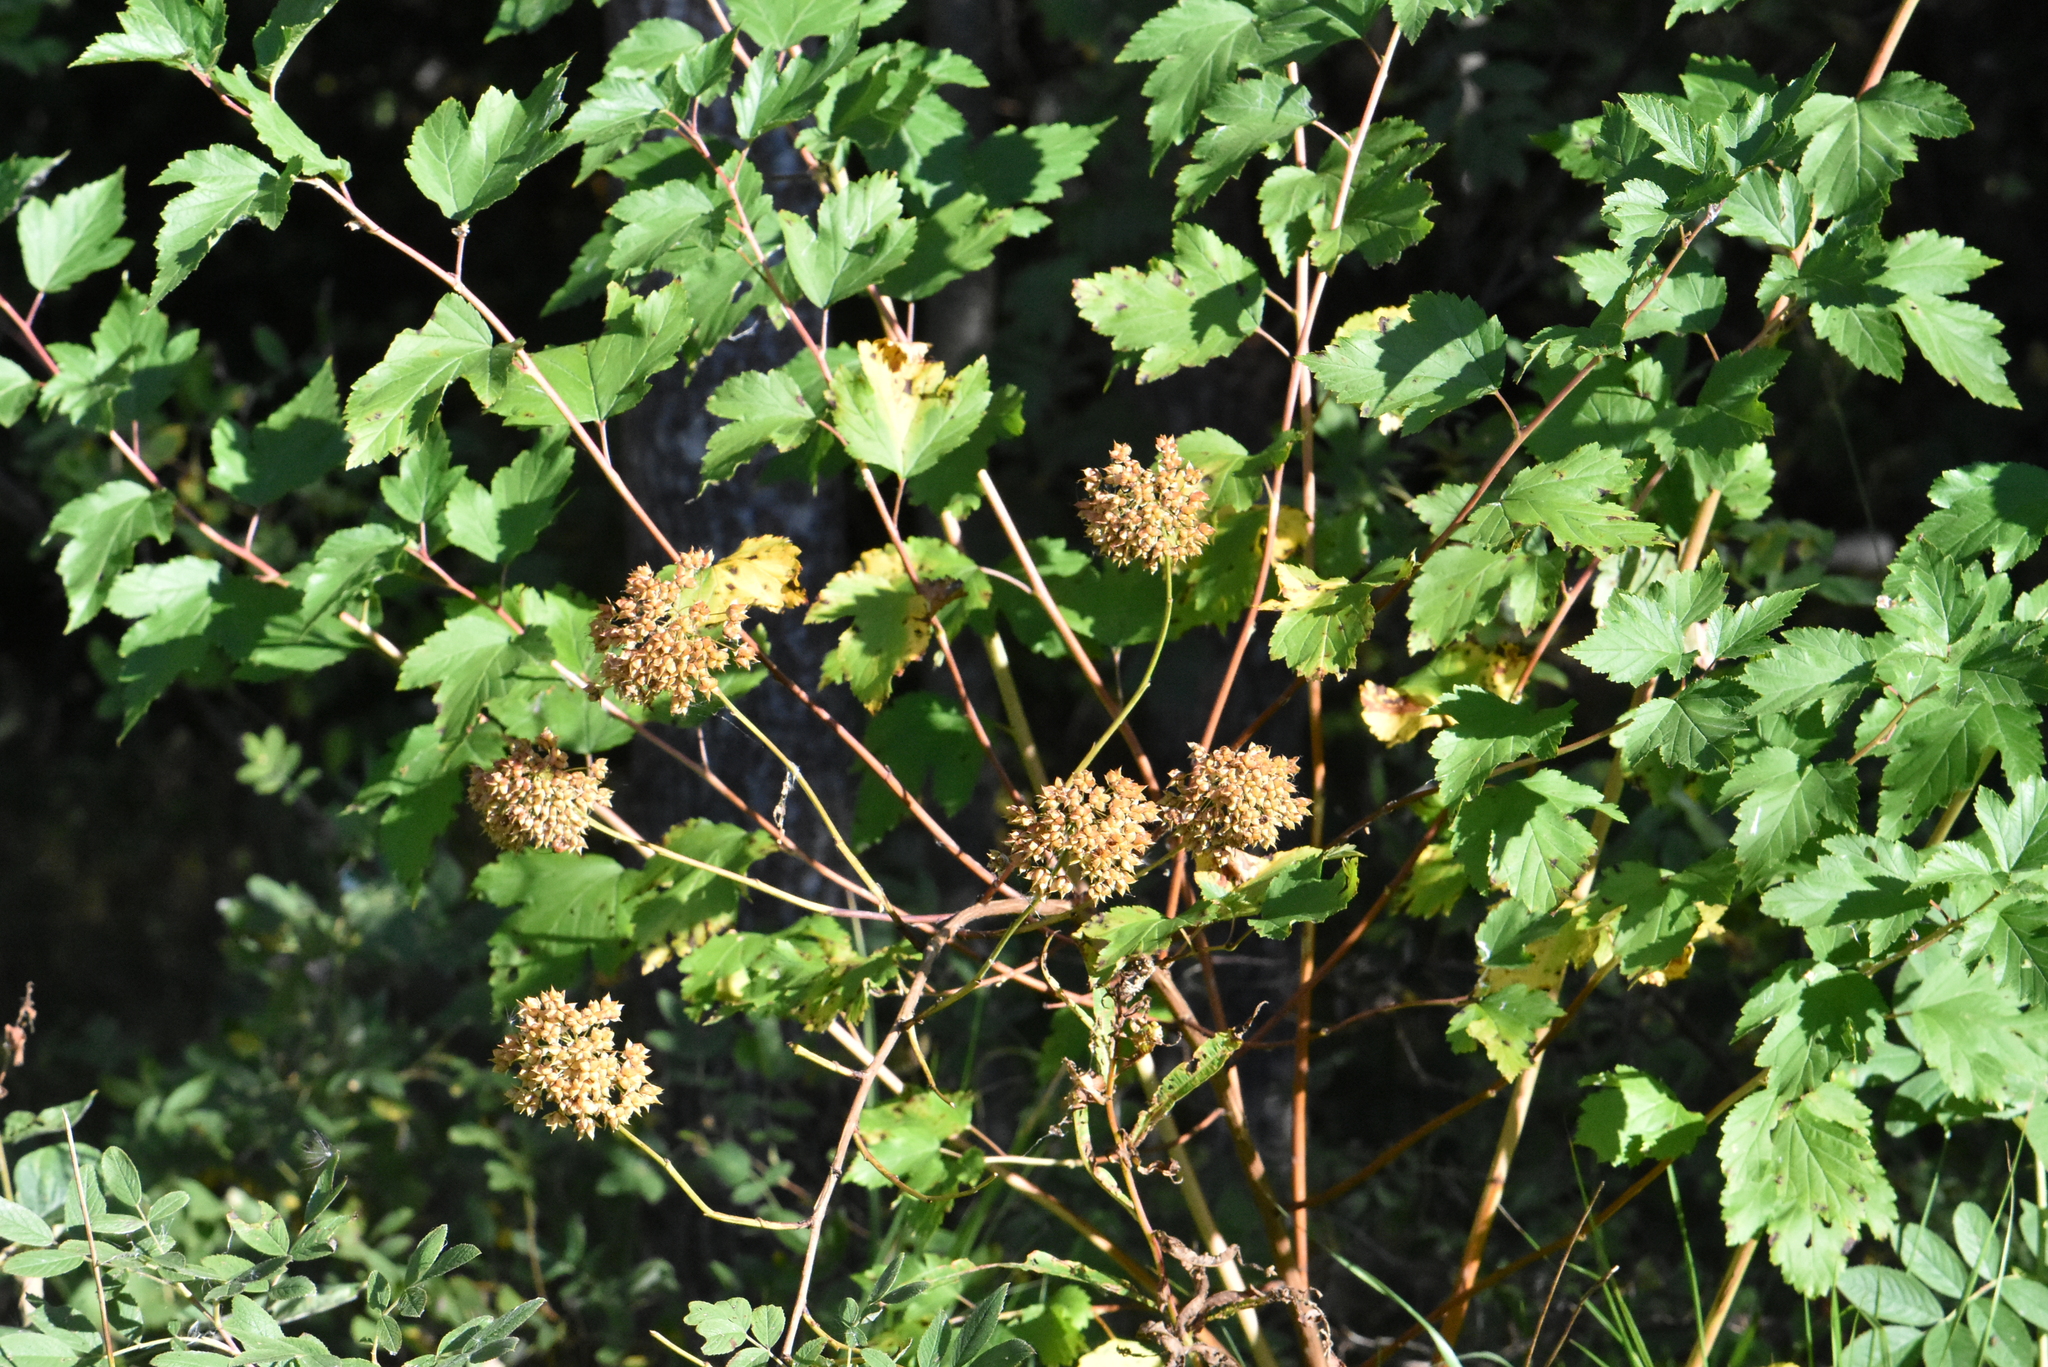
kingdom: Plantae
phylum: Tracheophyta
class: Magnoliopsida
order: Rosales
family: Rosaceae
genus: Physocarpus
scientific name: Physocarpus opulifolius
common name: Ninebark
